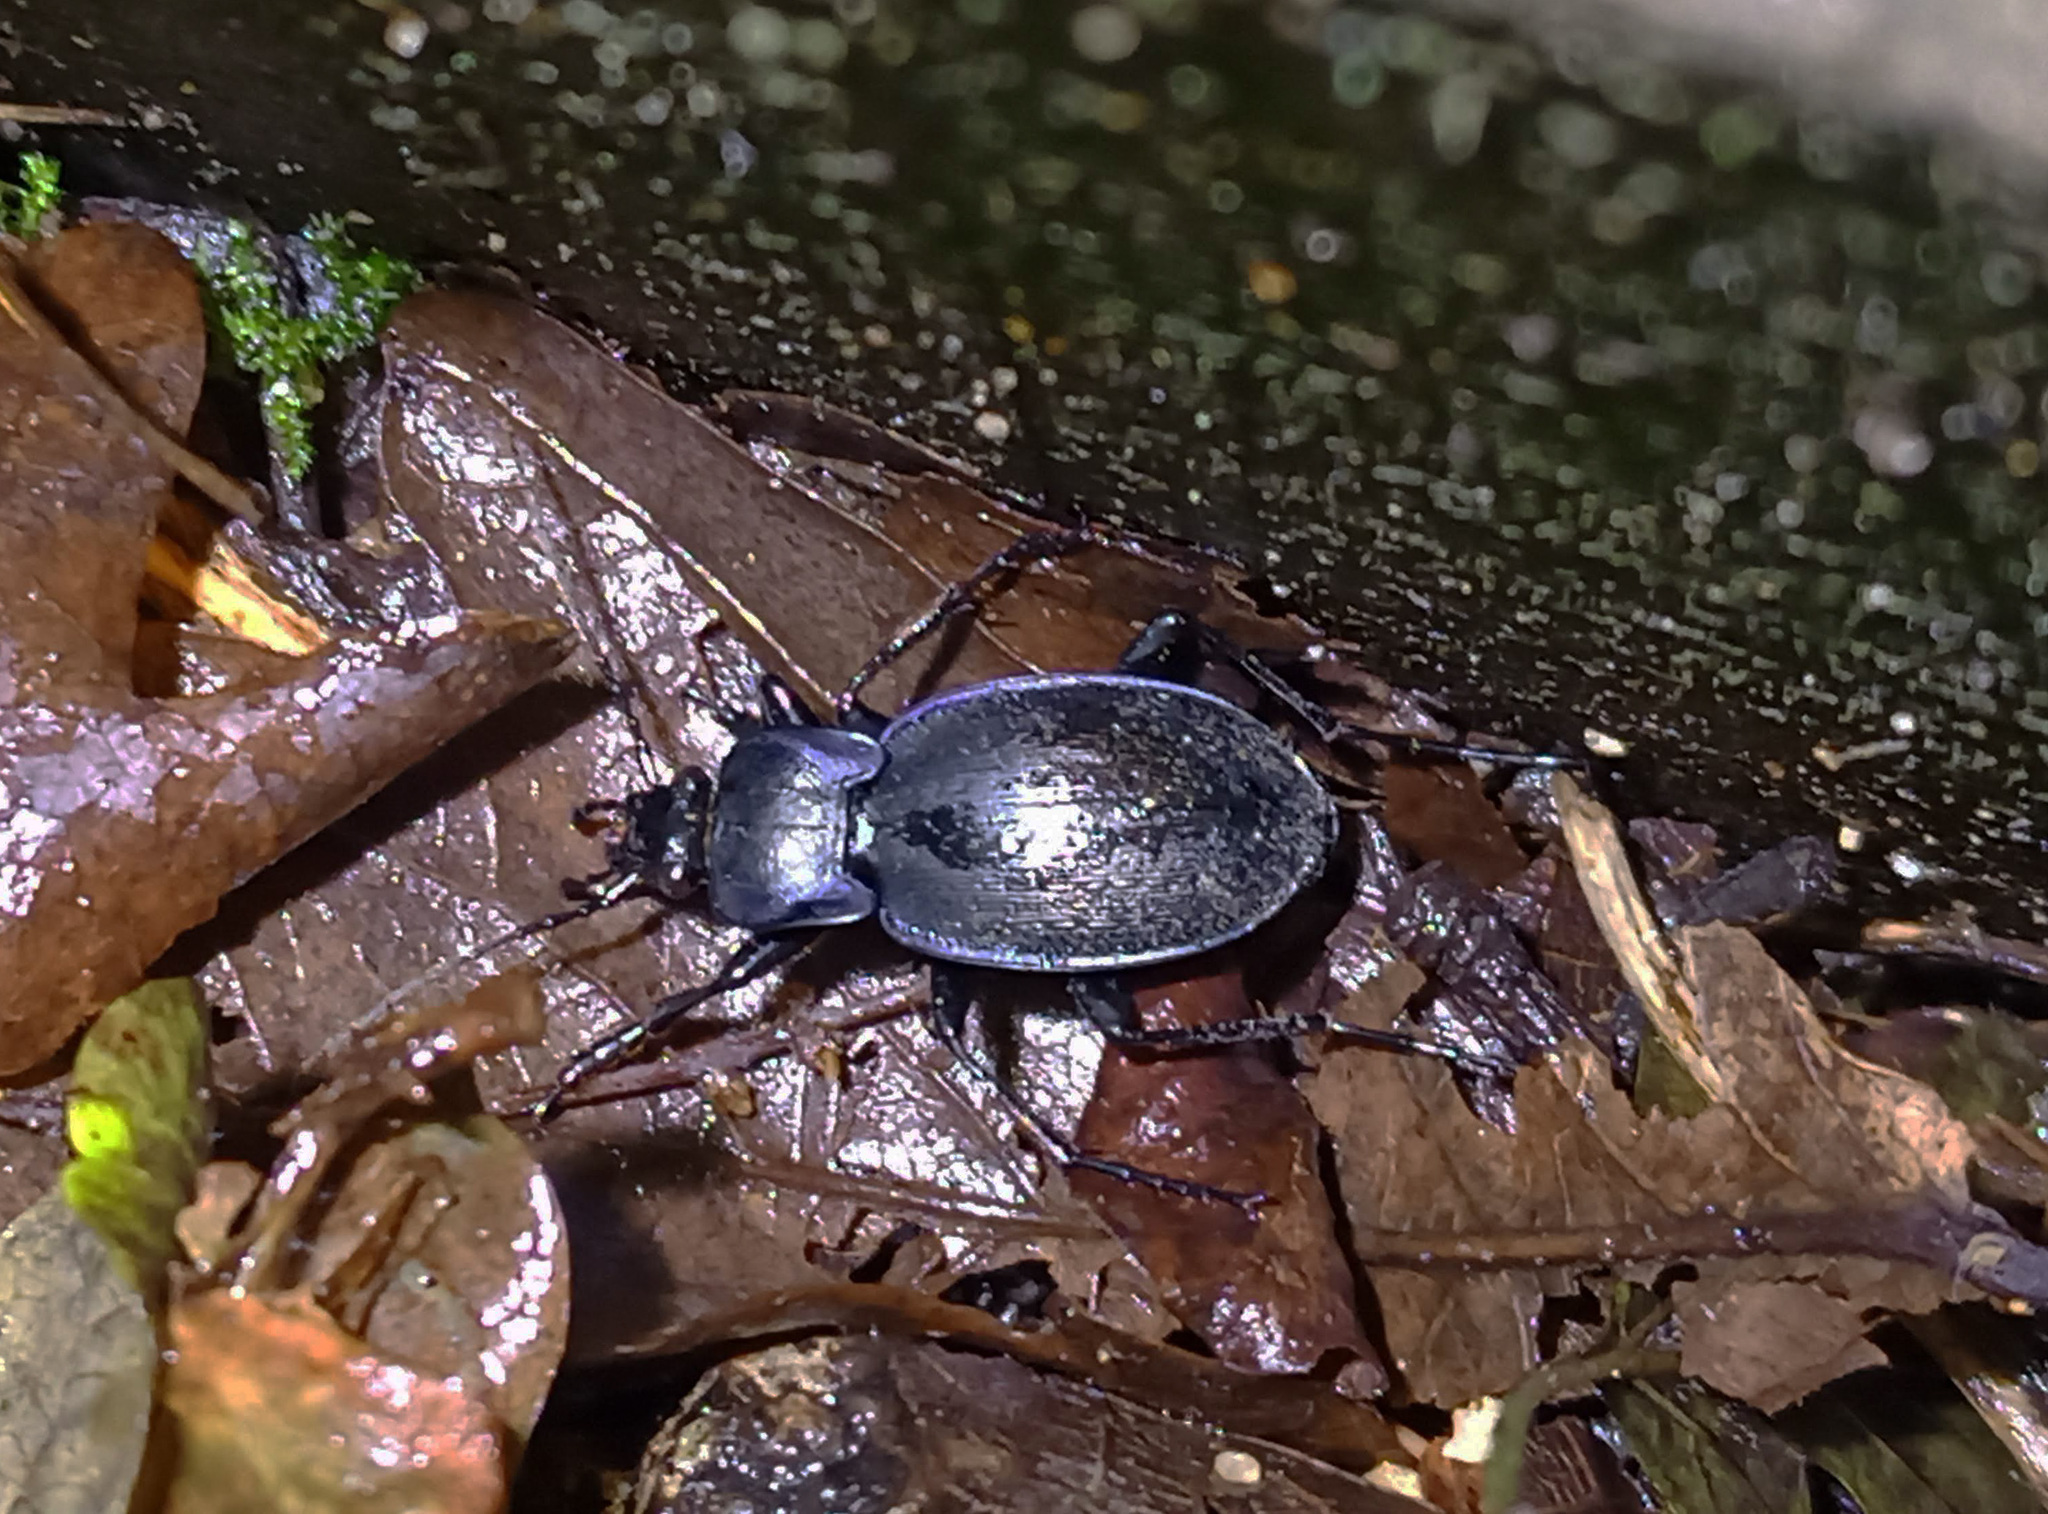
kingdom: Animalia
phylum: Arthropoda
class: Insecta
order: Coleoptera
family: Carabidae
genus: Carabus
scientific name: Carabus luetgensi
